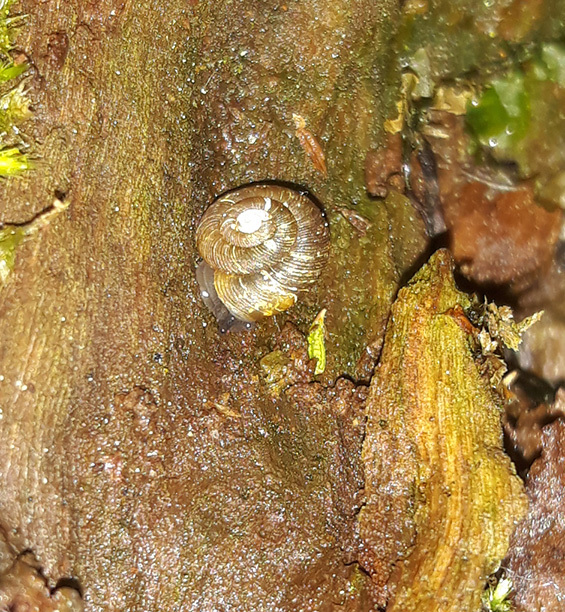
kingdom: Animalia
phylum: Mollusca
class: Gastropoda
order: Stylommatophora
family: Discidae
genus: Discus
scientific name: Discus ruderatus
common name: Brown disc snail
